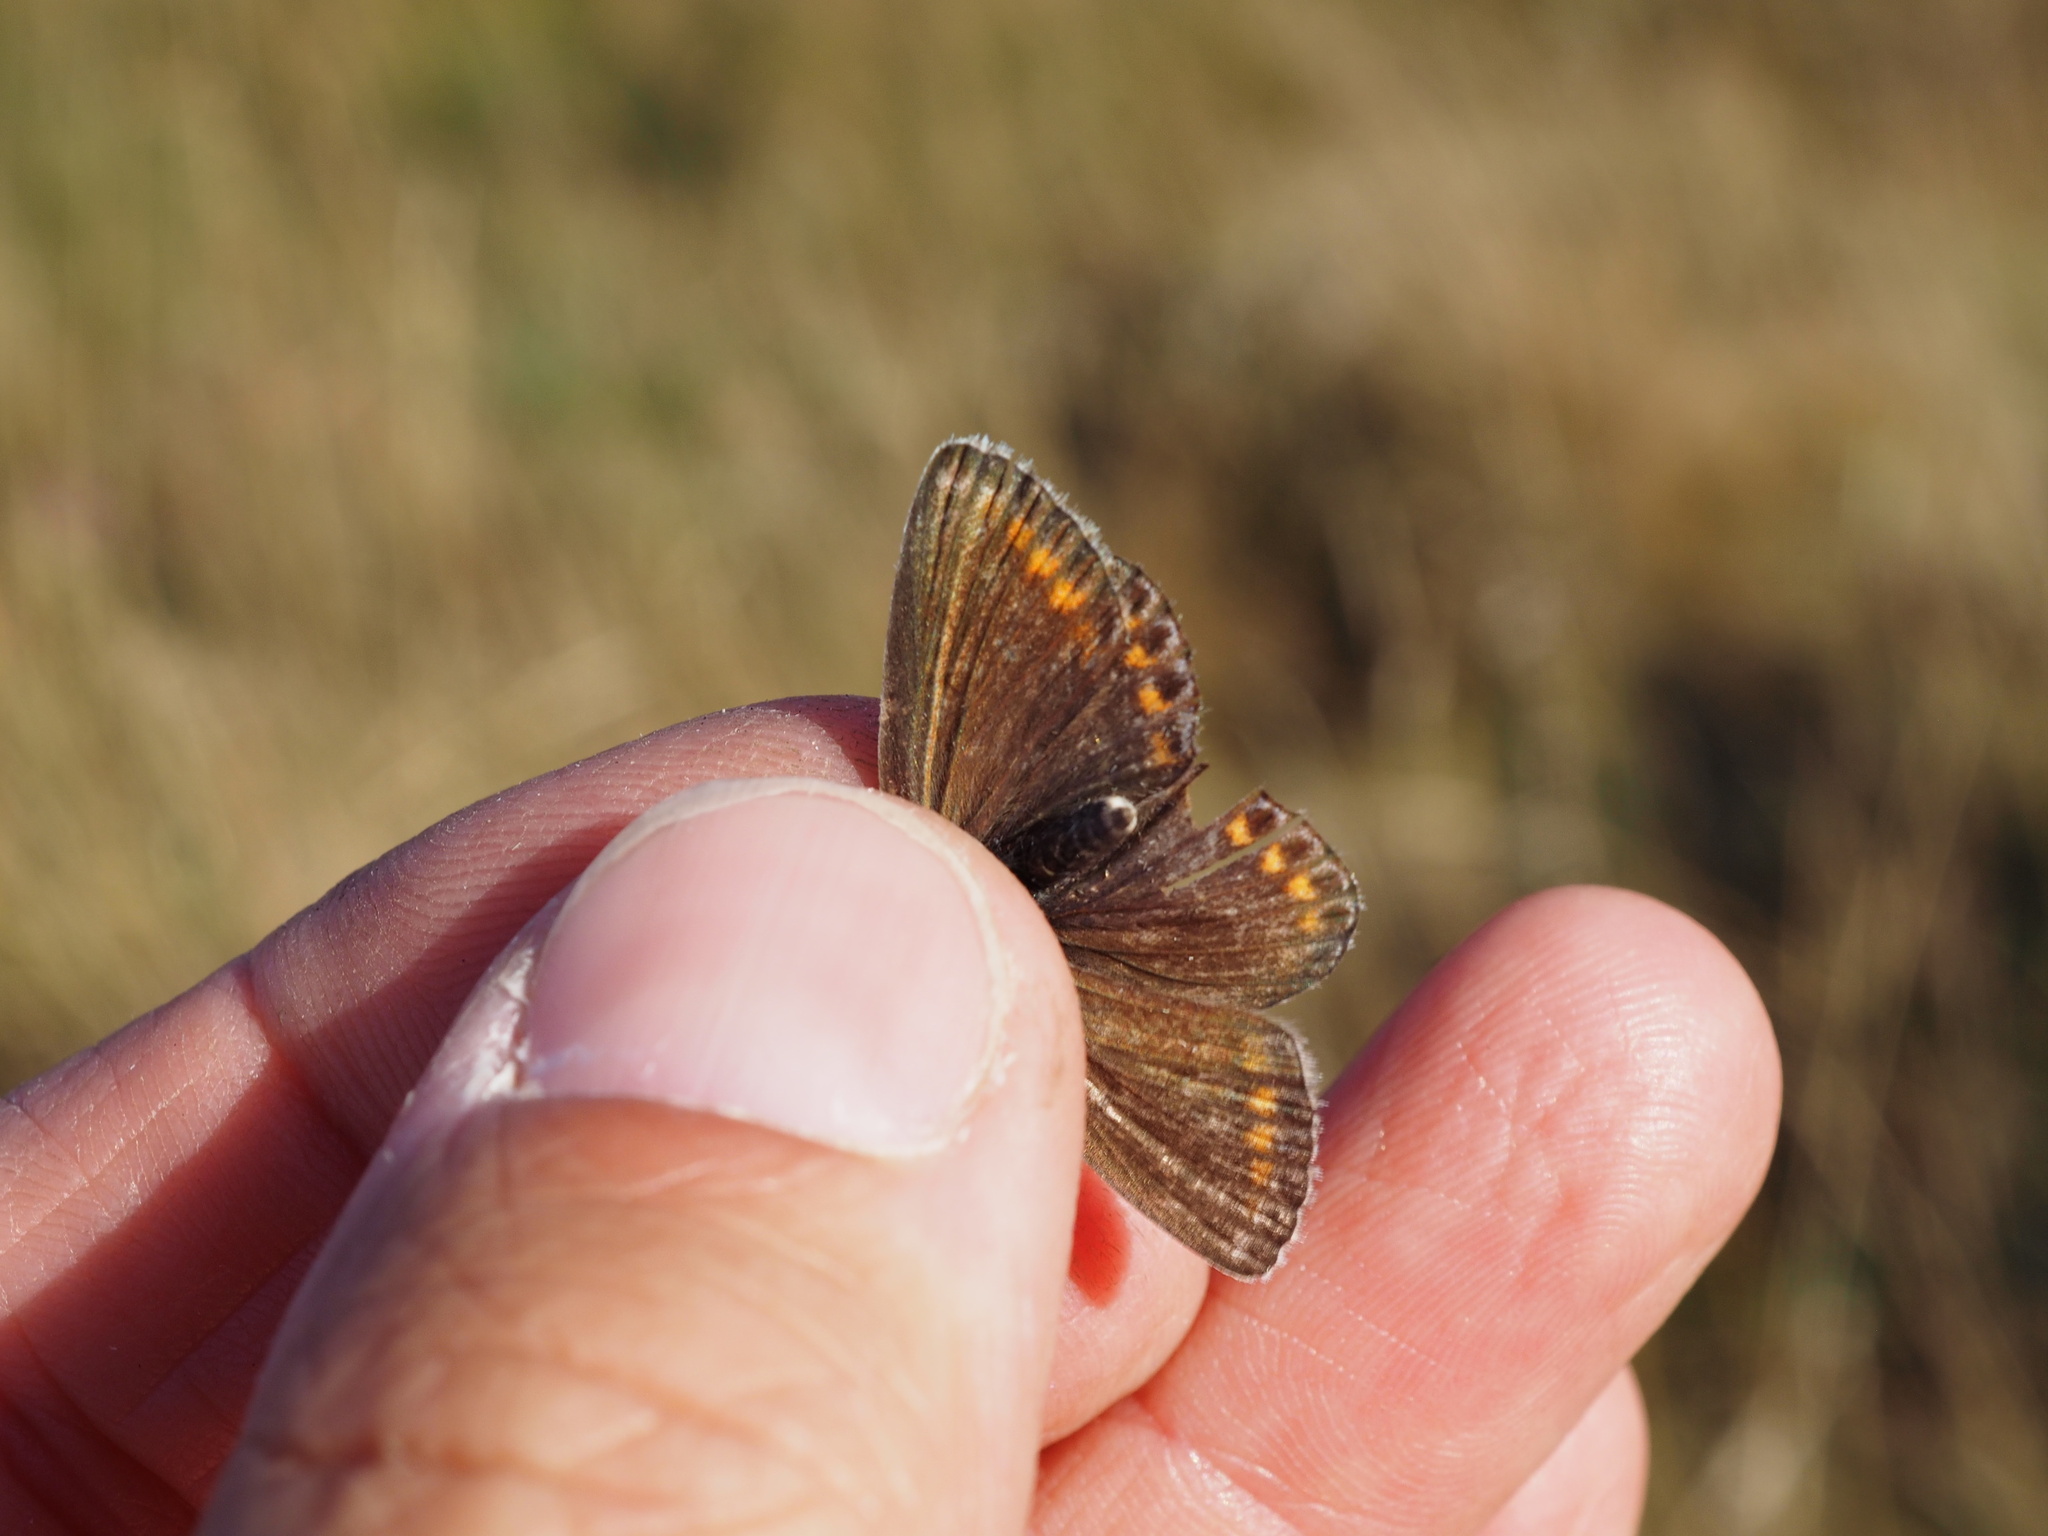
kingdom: Animalia
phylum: Arthropoda
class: Insecta
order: Lepidoptera
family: Lycaenidae
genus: Polyommatus
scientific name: Polyommatus icarus
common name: Common blue
